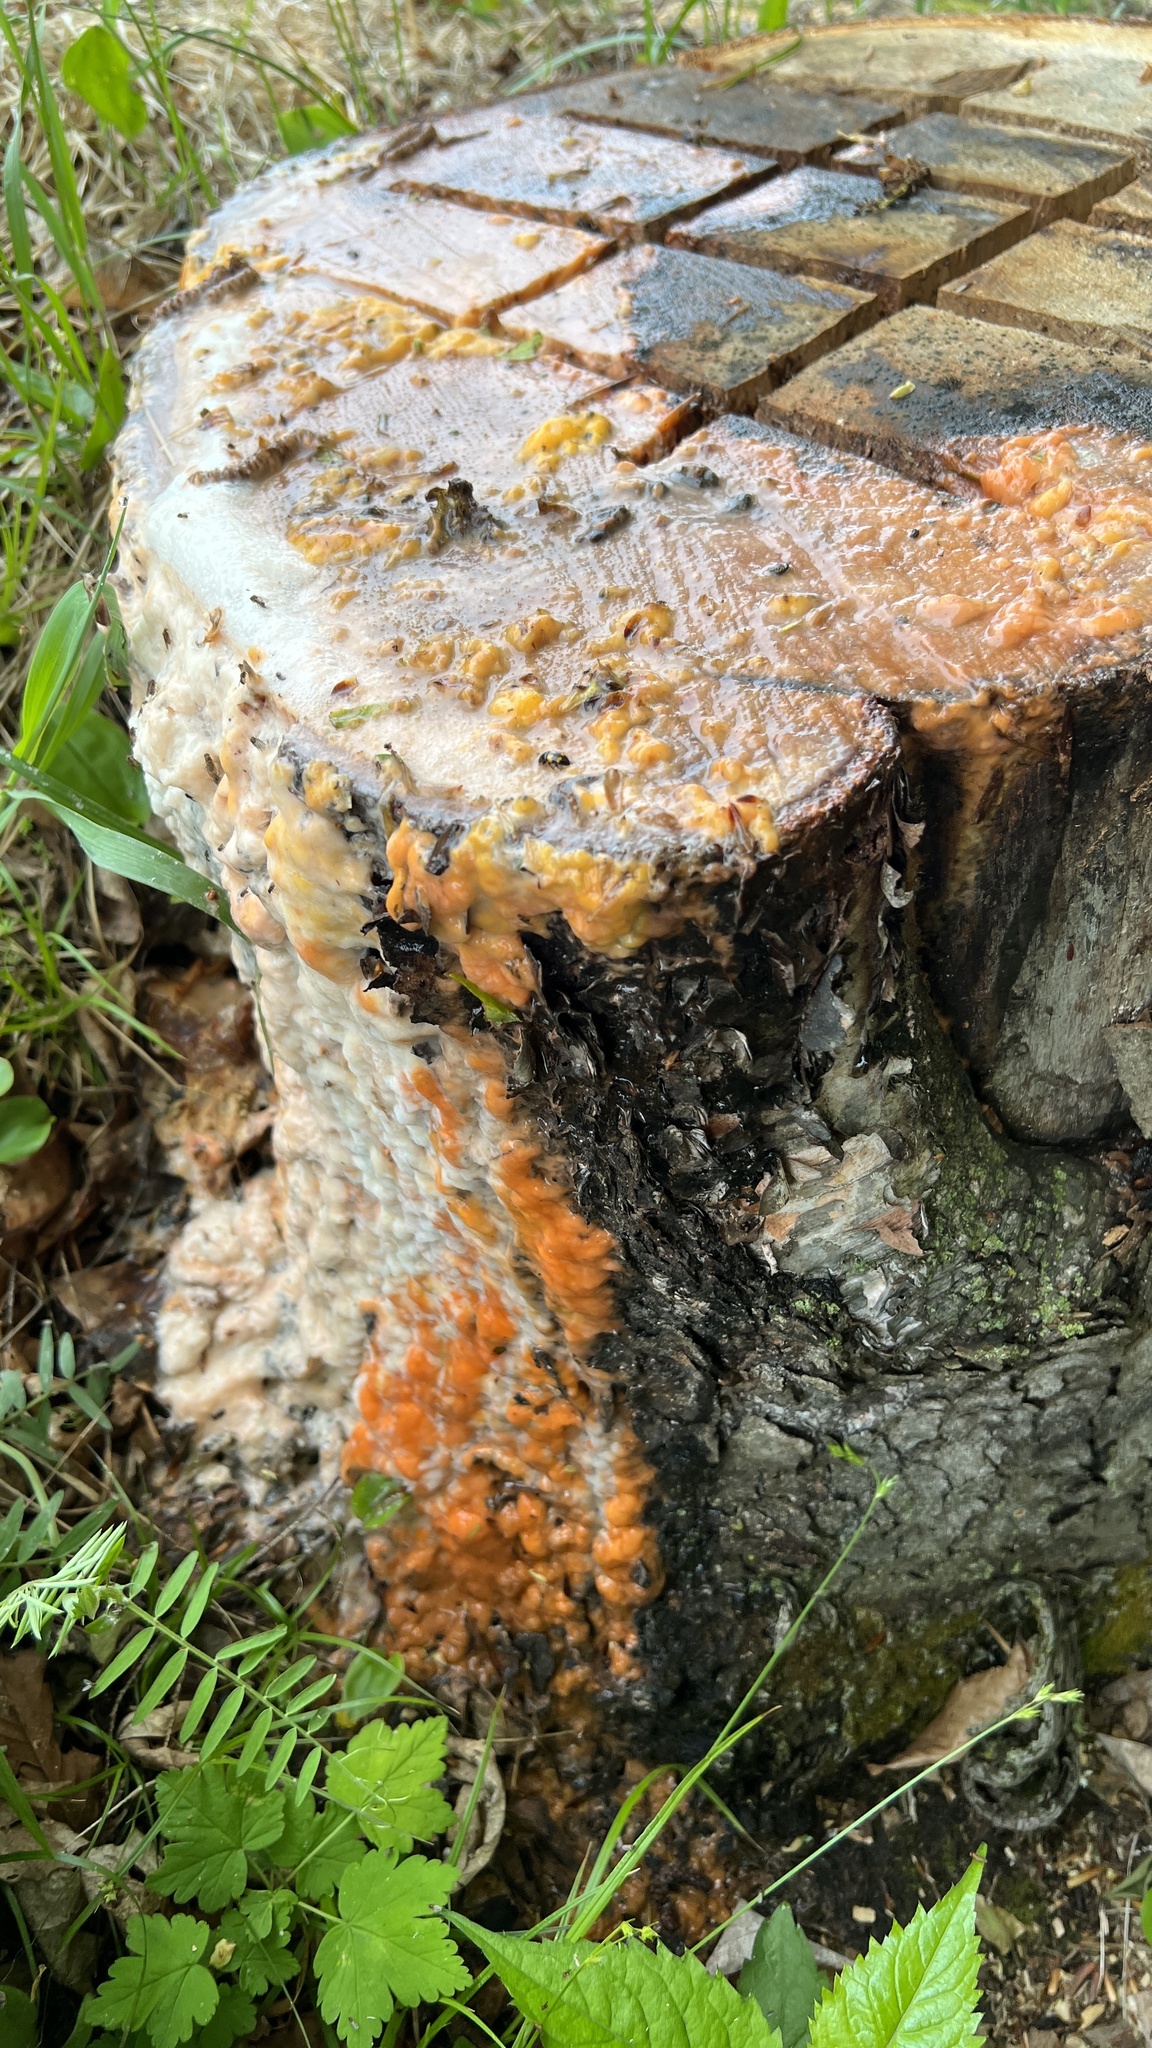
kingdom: Fungi
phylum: Basidiomycota
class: Tremellomycetes
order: Cystofilobasidiales
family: Cystofilobasidiaceae
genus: Cystofilobasidium
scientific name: Cystofilobasidium macerans
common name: Sap yeast
